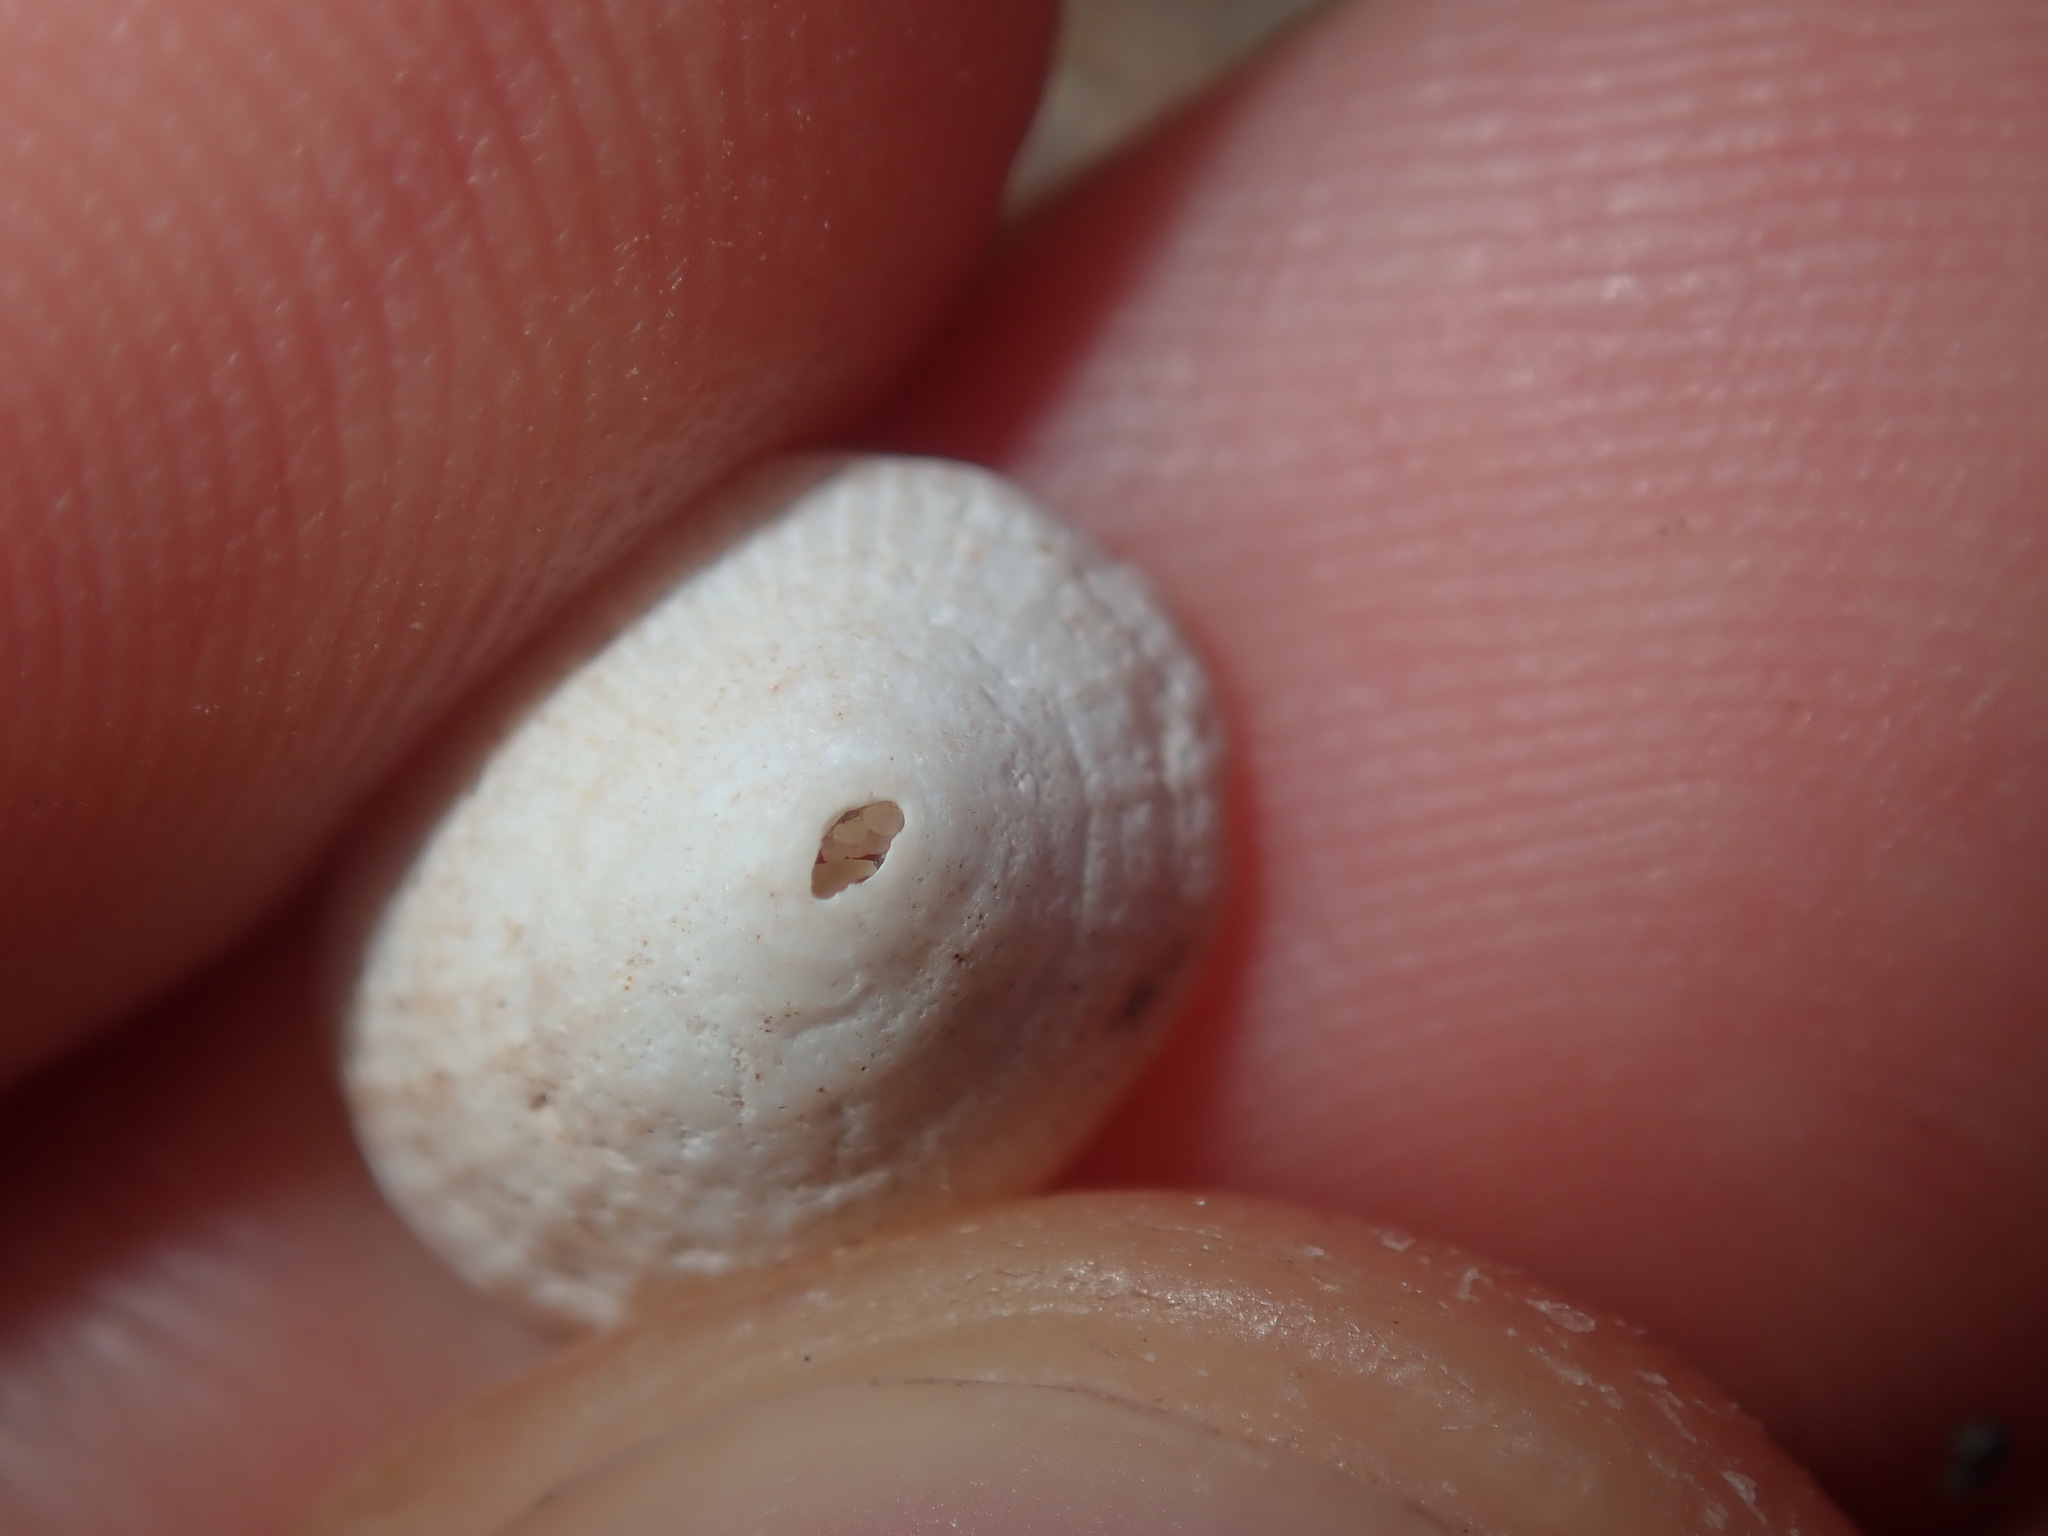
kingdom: Animalia
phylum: Mollusca
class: Gastropoda
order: Lepetellida
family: Fissurellidae
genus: Diodora
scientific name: Diodora ticaonica
